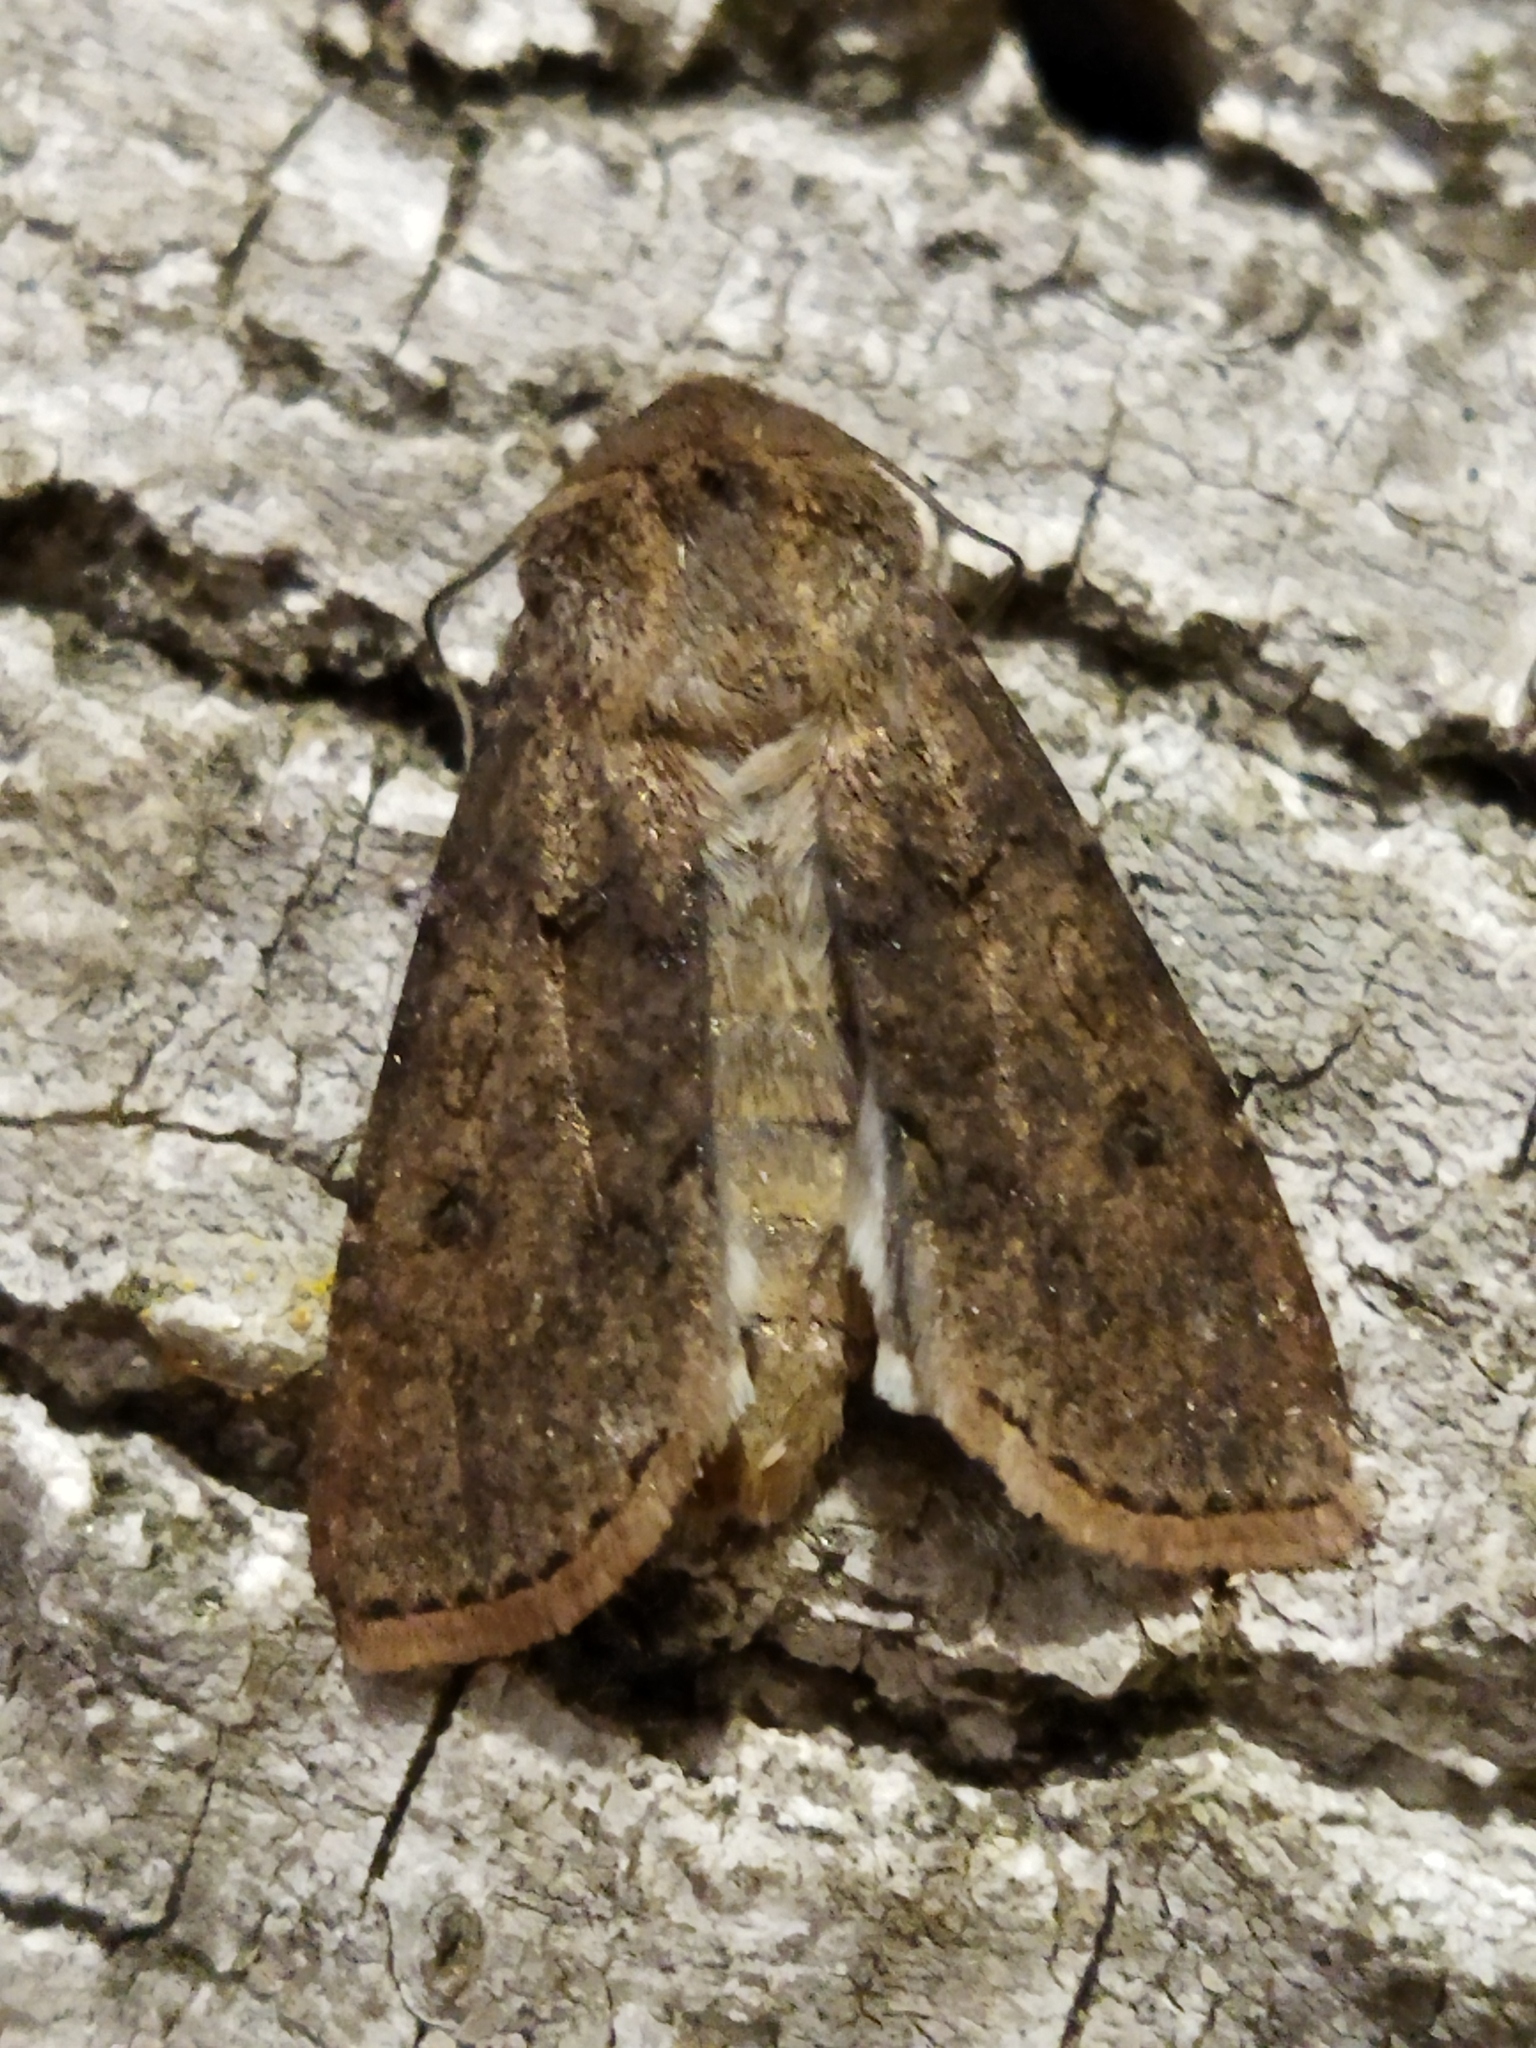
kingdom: Animalia
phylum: Arthropoda
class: Insecta
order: Lepidoptera
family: Noctuidae
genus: Agrotis
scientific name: Agrotis segetum
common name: Turnip moth
